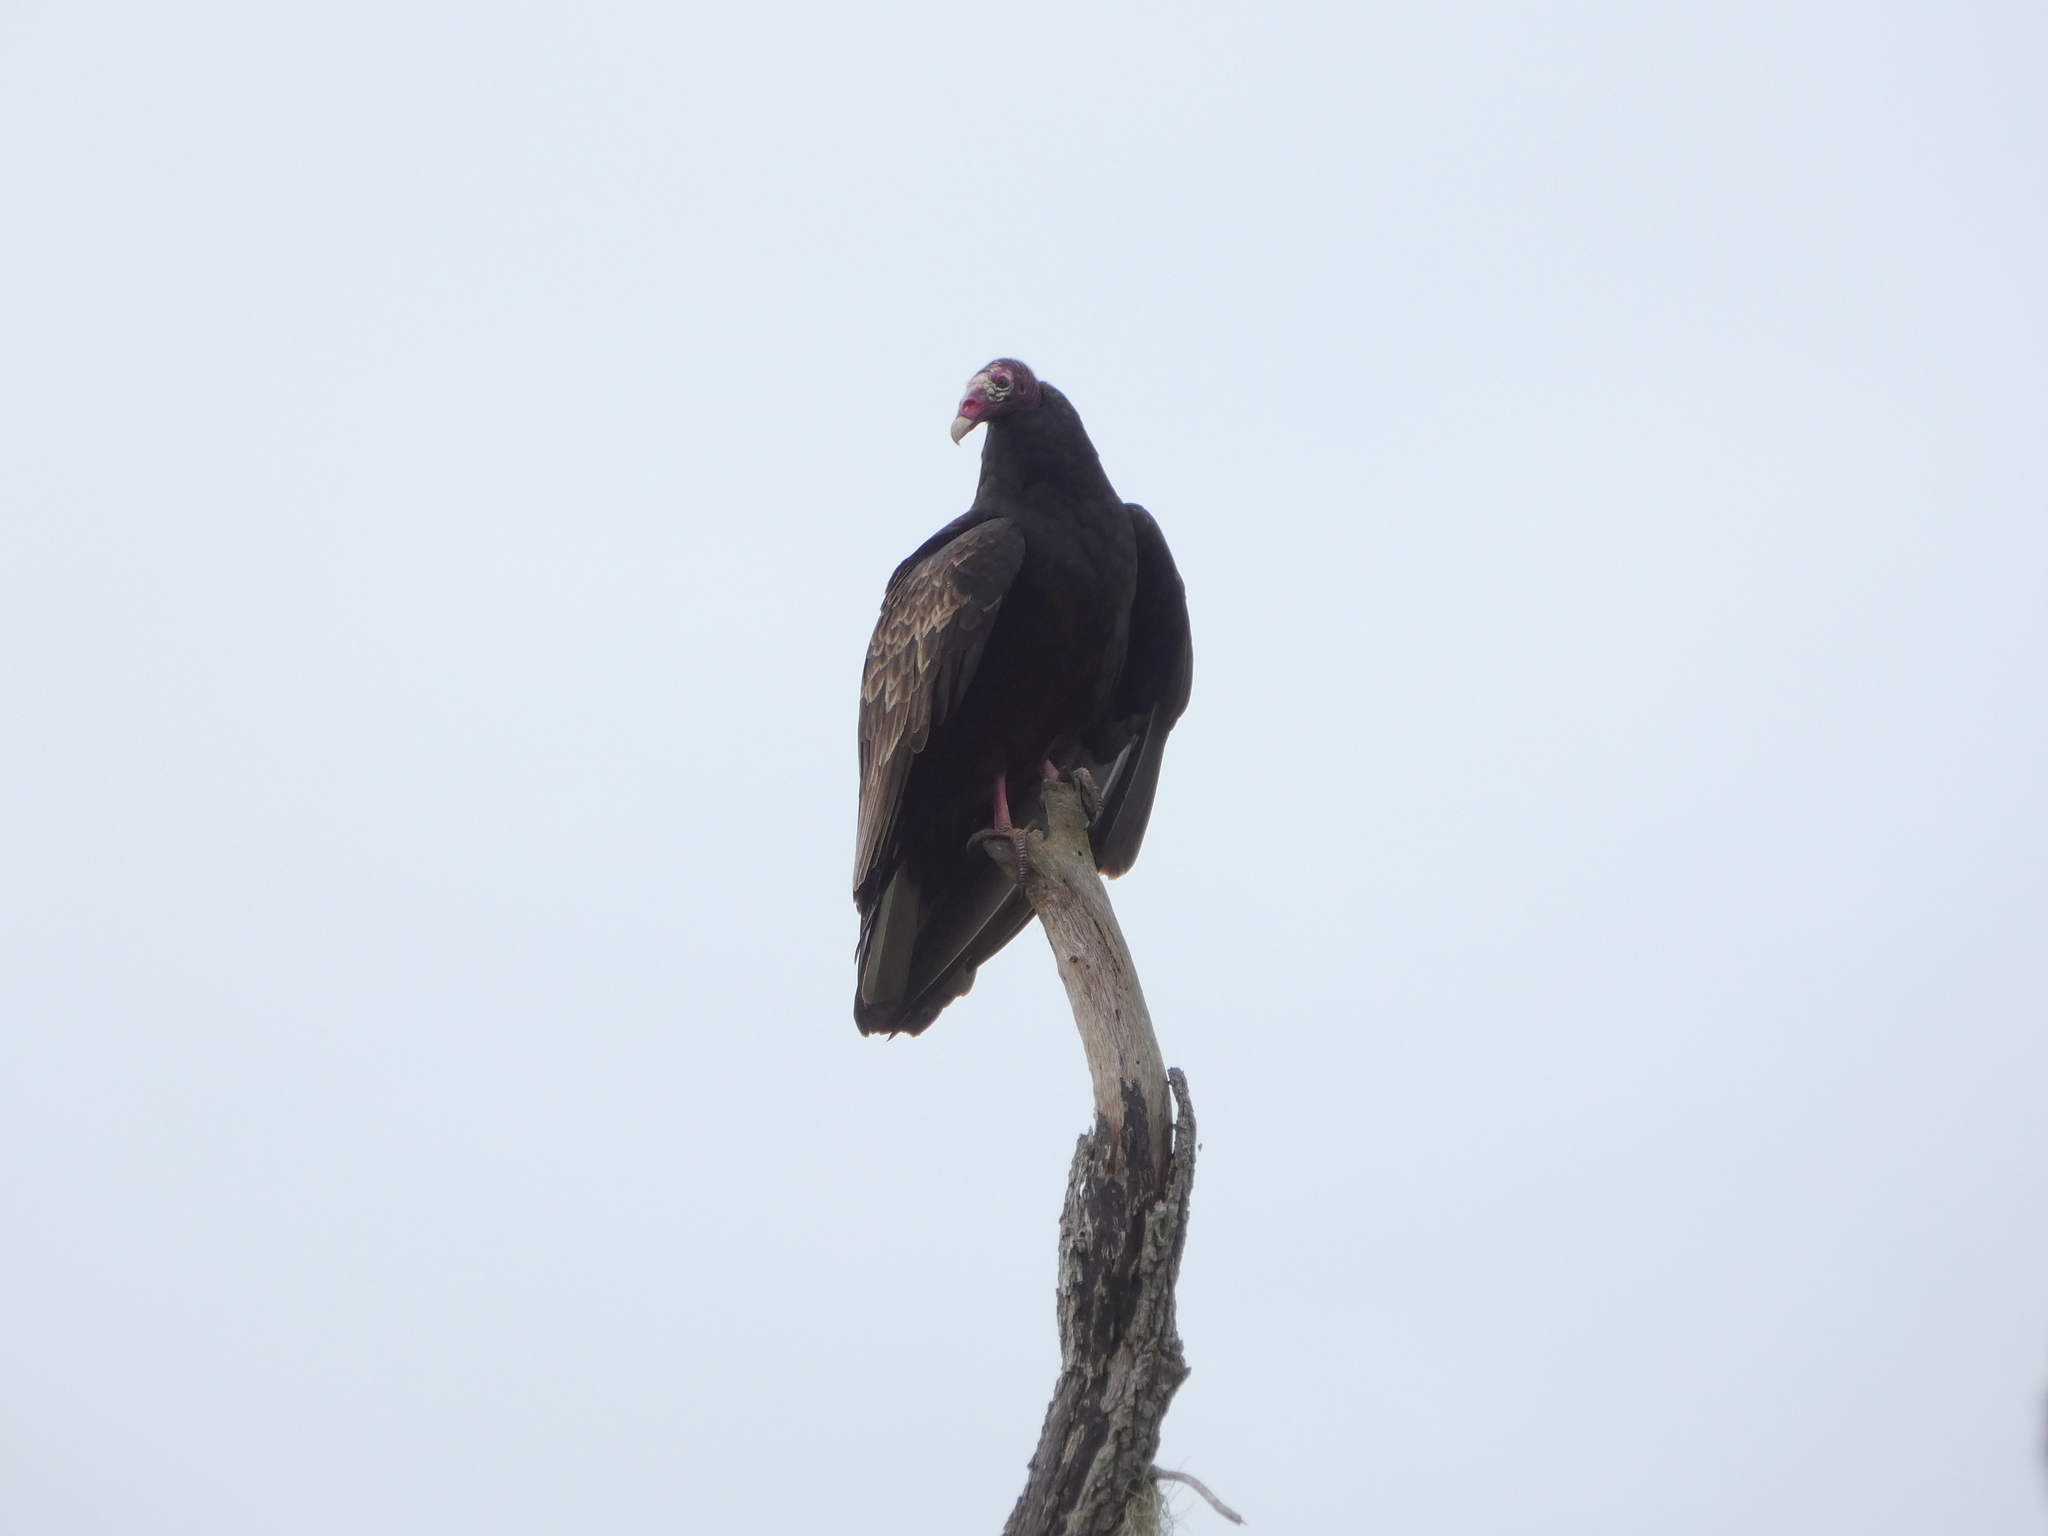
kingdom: Animalia
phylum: Chordata
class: Aves
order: Accipitriformes
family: Cathartidae
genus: Cathartes
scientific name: Cathartes aura
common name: Turkey vulture
